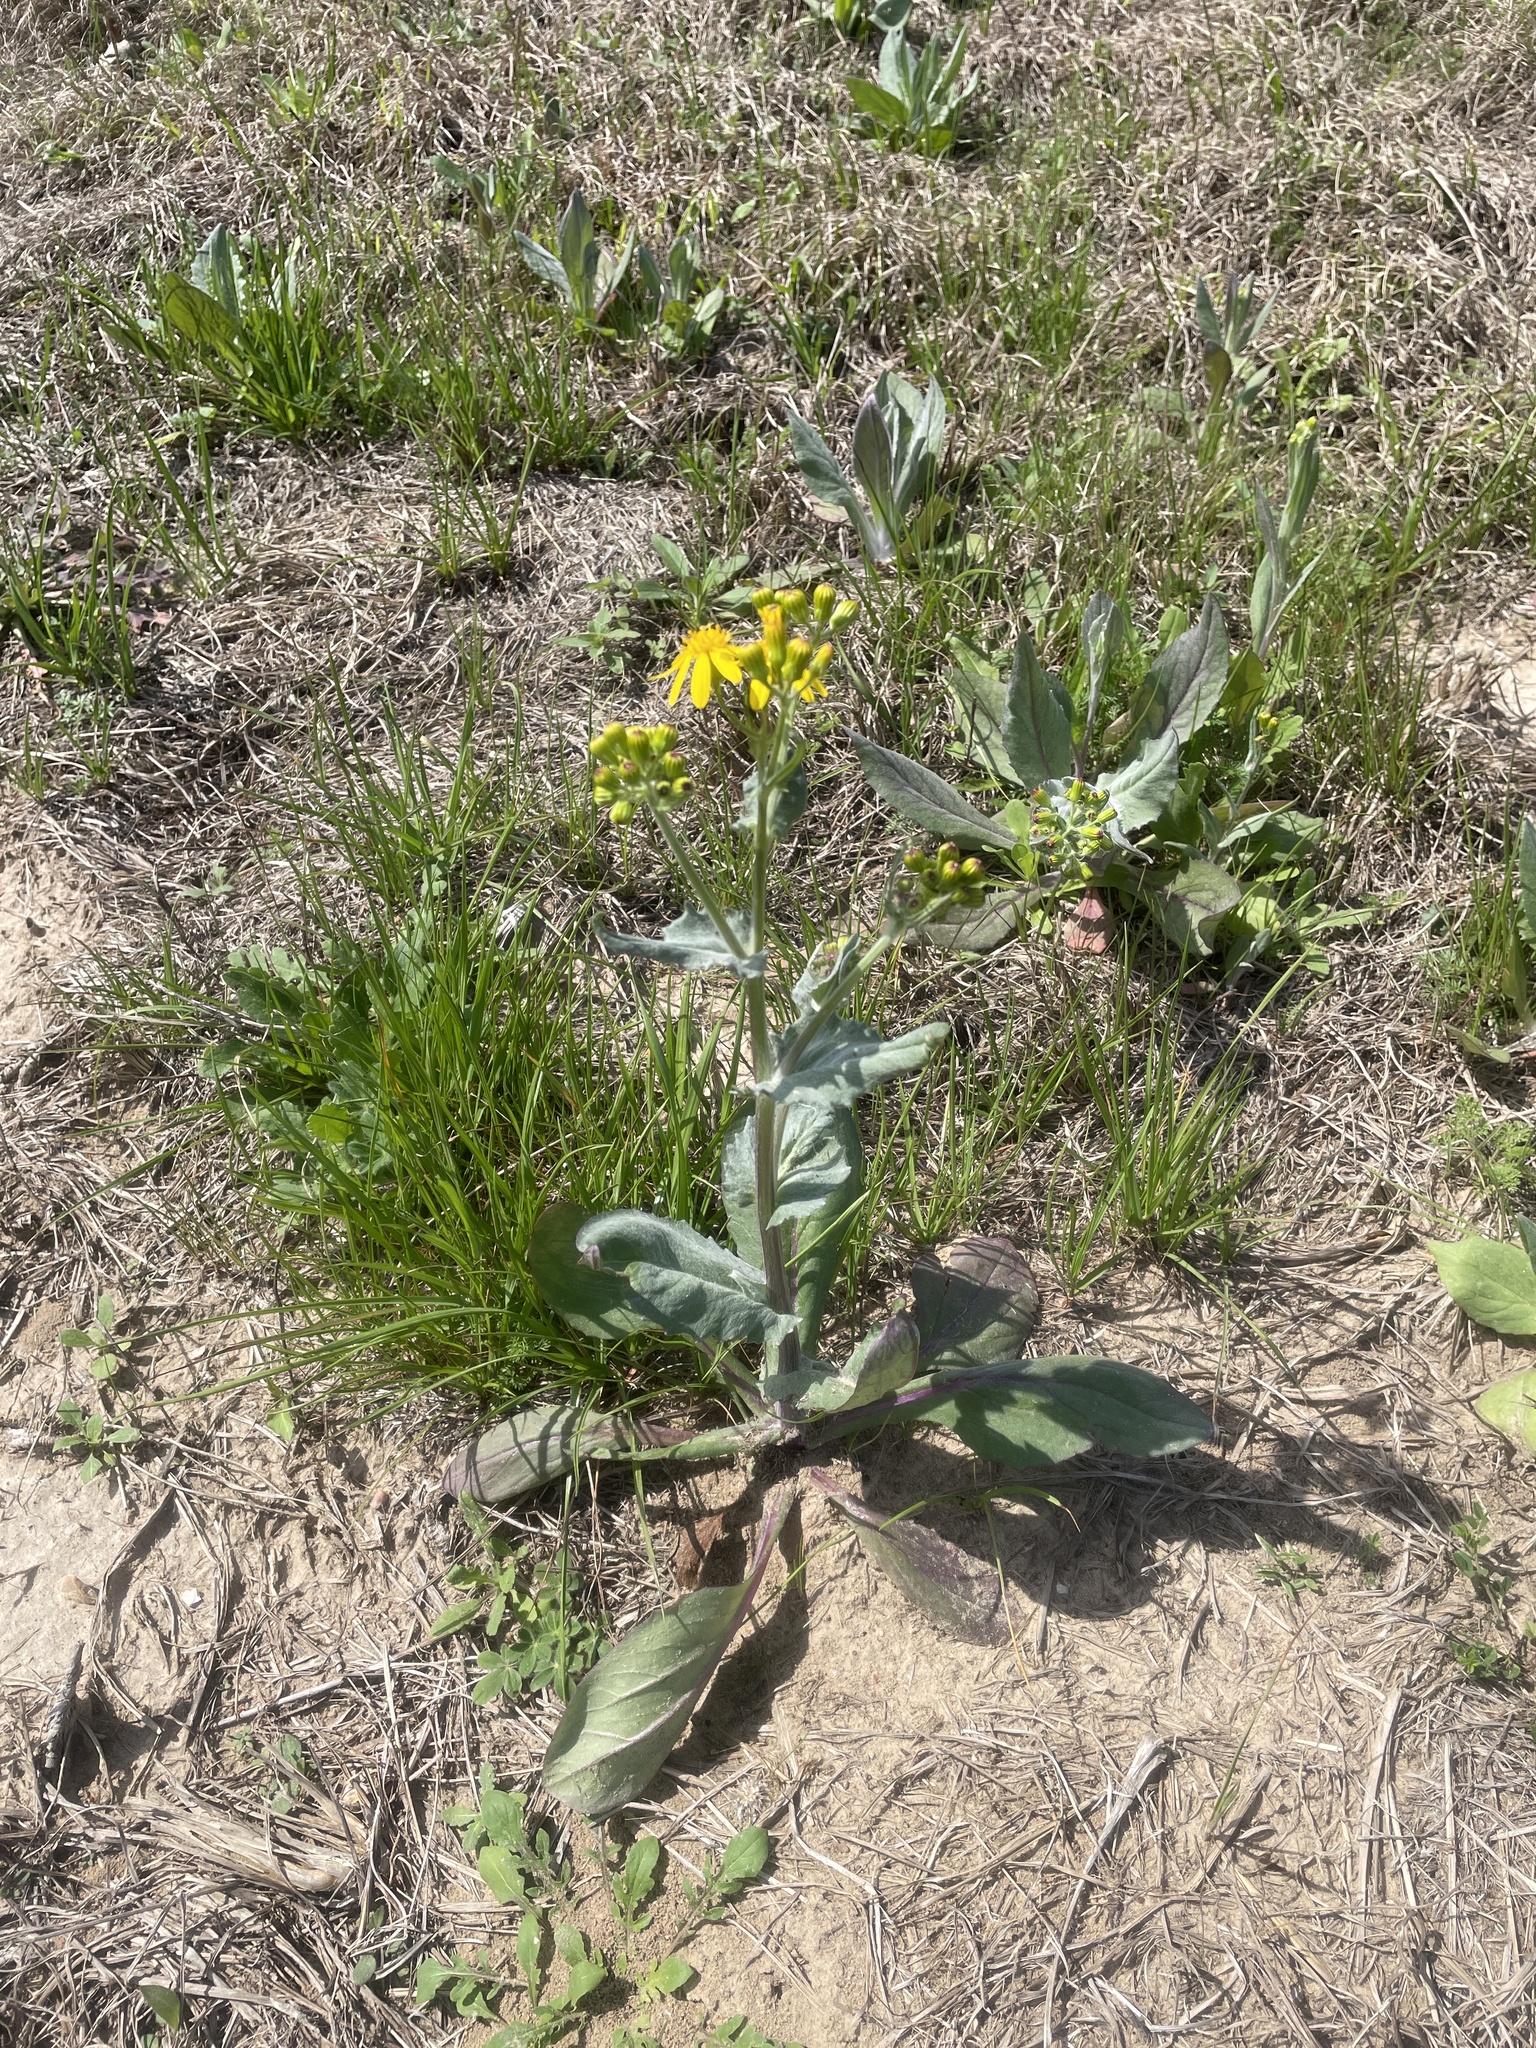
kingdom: Plantae
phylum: Tracheophyta
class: Magnoliopsida
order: Asterales
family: Asteraceae
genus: Senecio
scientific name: Senecio ampullaceus
